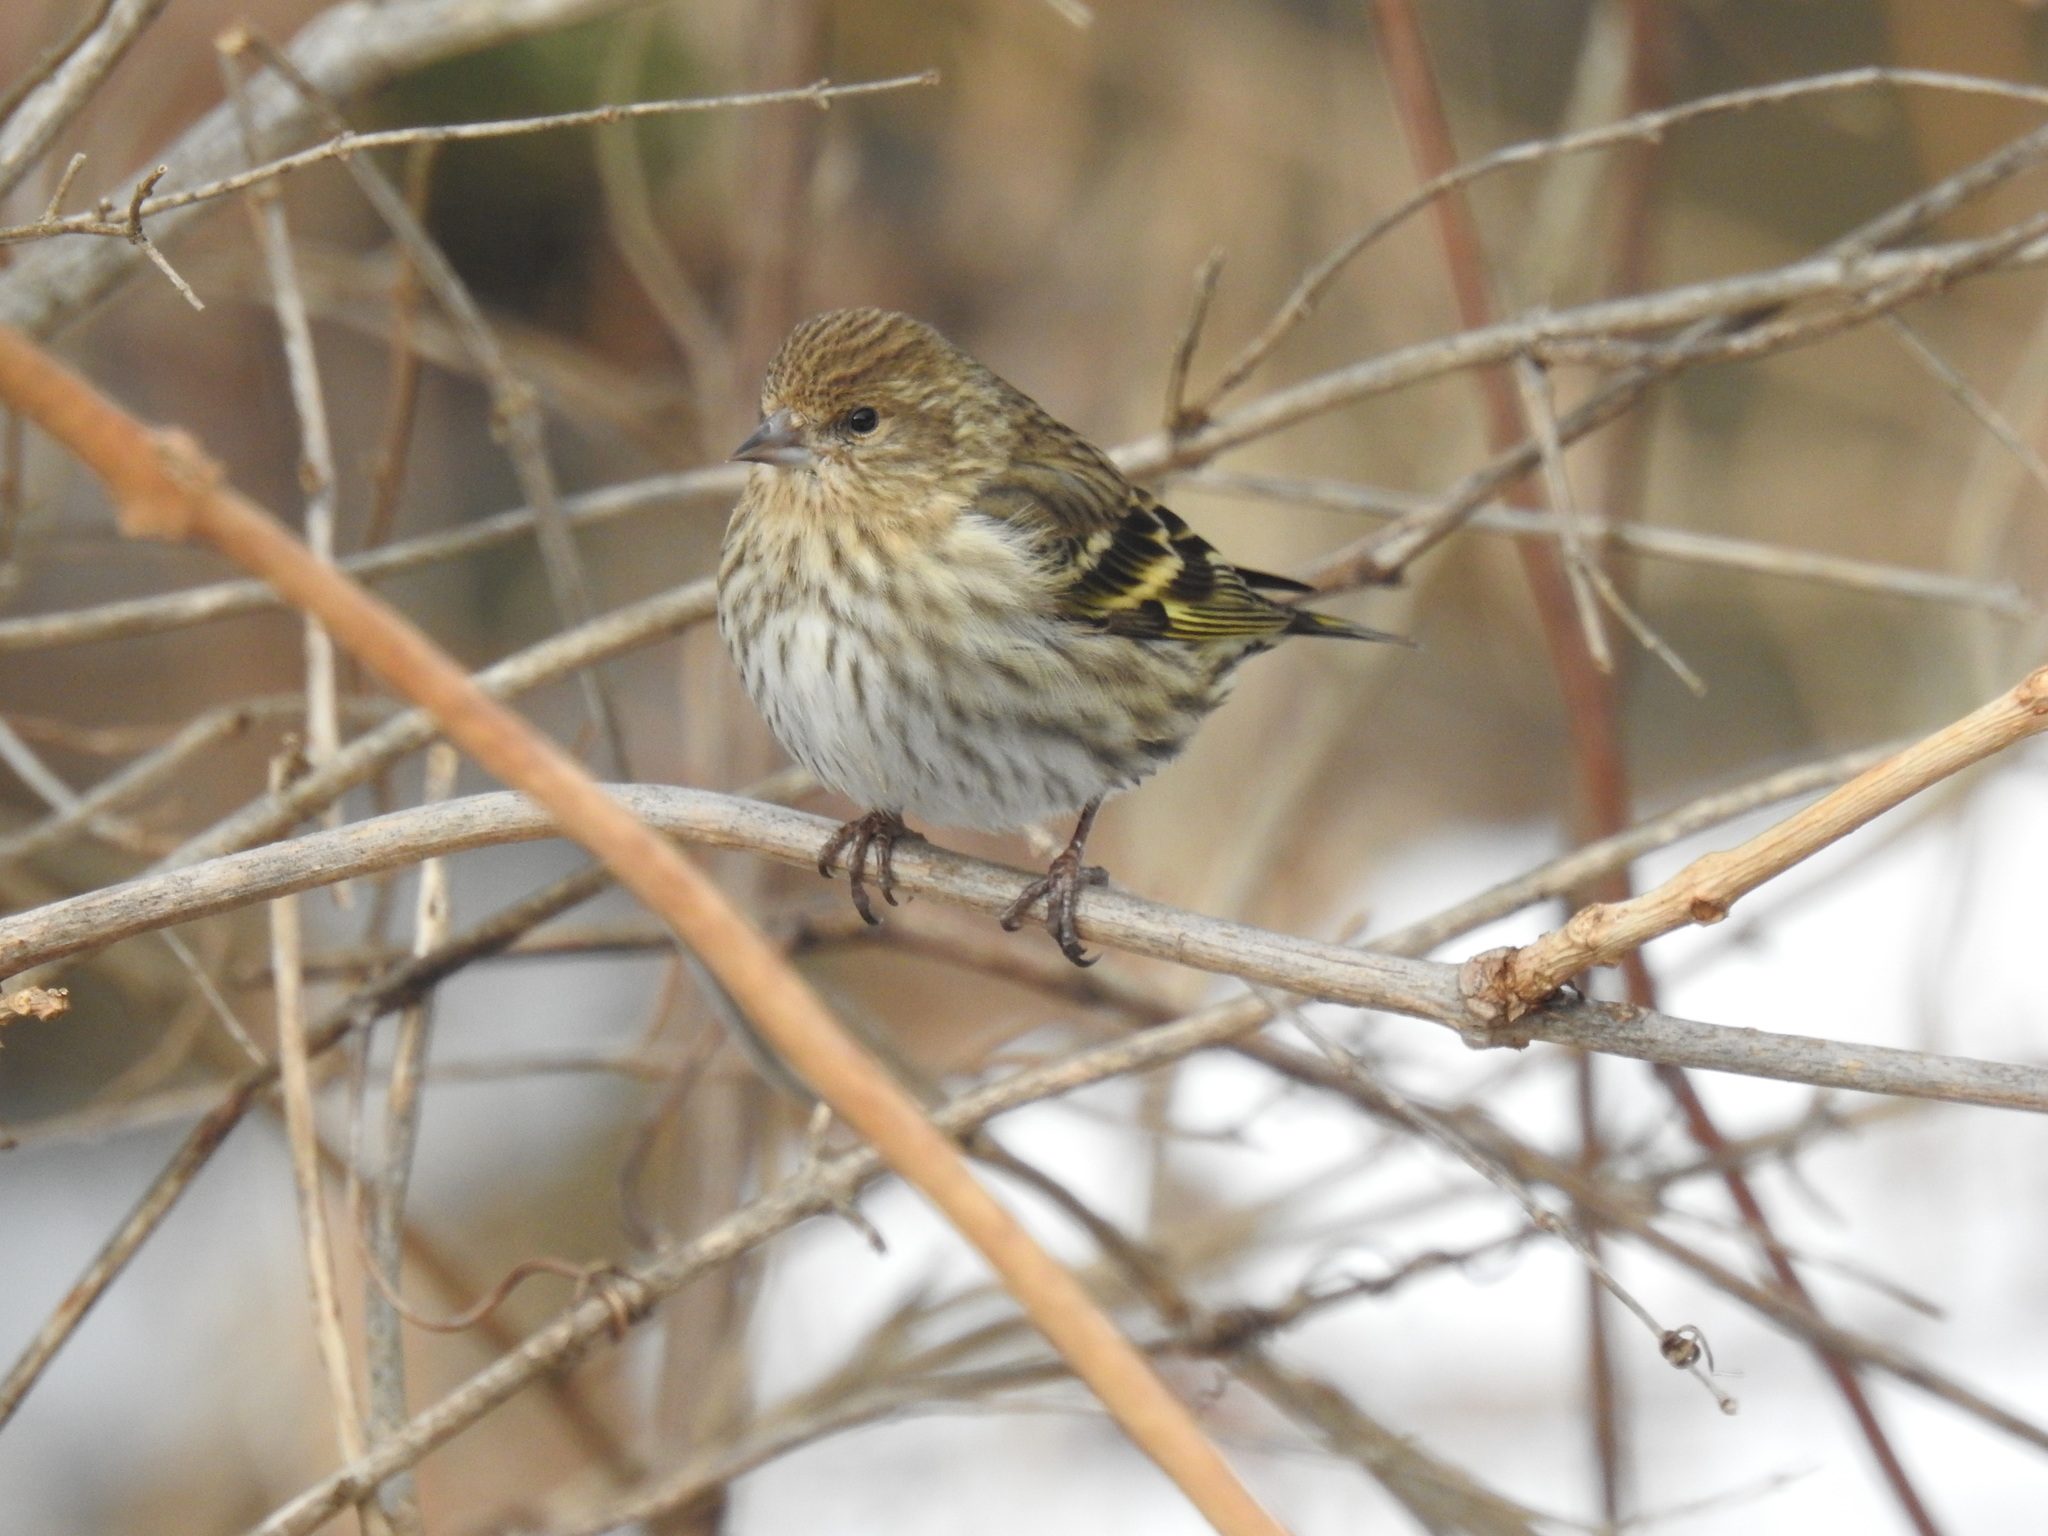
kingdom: Animalia
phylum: Chordata
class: Aves
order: Passeriformes
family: Fringillidae
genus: Spinus
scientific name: Spinus pinus
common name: Pine siskin
